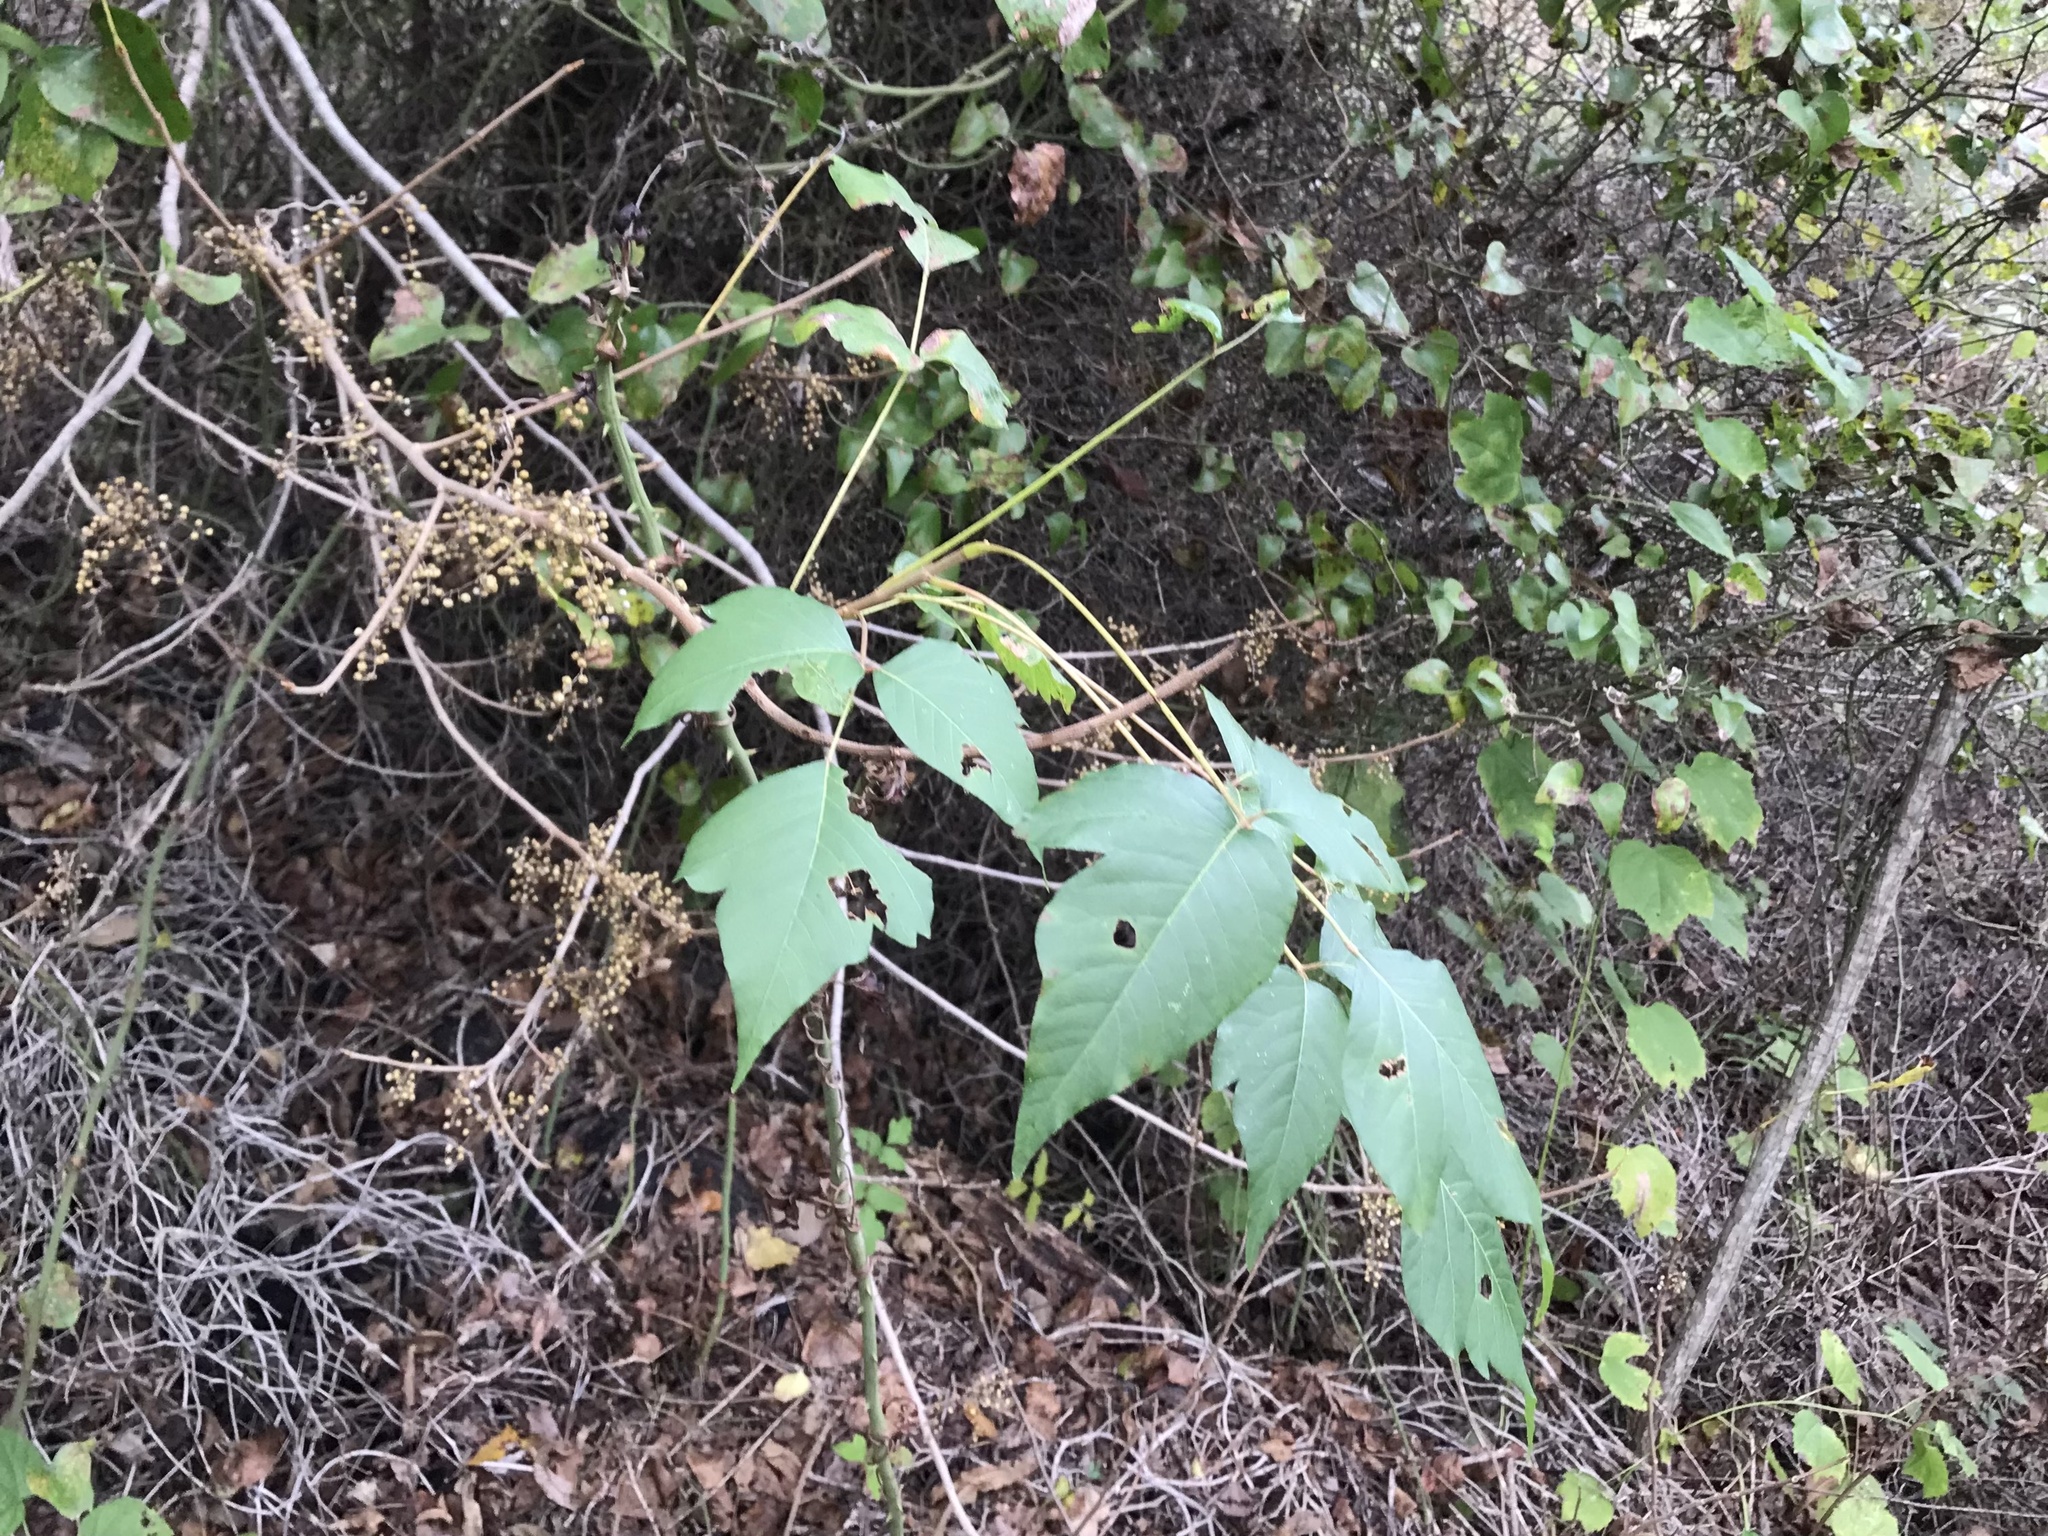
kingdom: Plantae
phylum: Tracheophyta
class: Magnoliopsida
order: Sapindales
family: Anacardiaceae
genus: Toxicodendron
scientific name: Toxicodendron radicans
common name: Poison ivy
